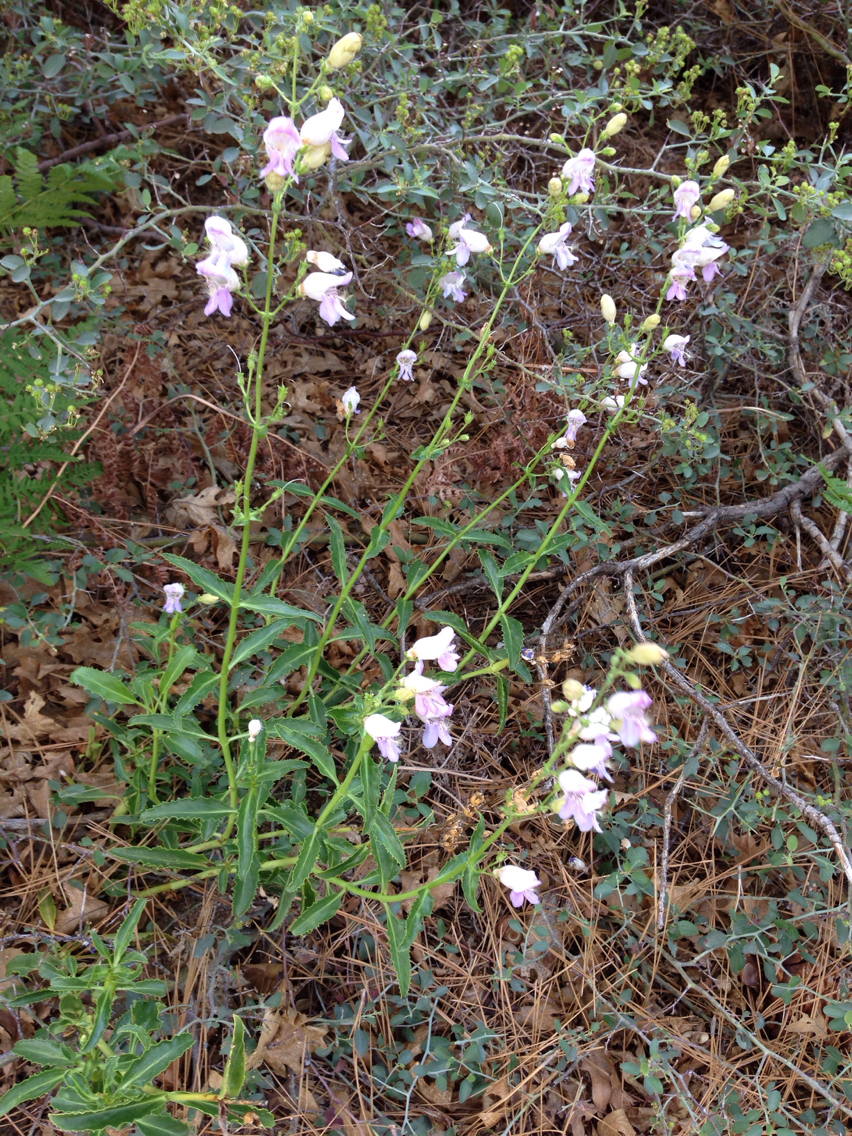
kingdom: Plantae
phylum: Tracheophyta
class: Magnoliopsida
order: Lamiales
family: Plantaginaceae
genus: Penstemon
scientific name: Penstemon grinnellii
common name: Grinnell's beardtongue
